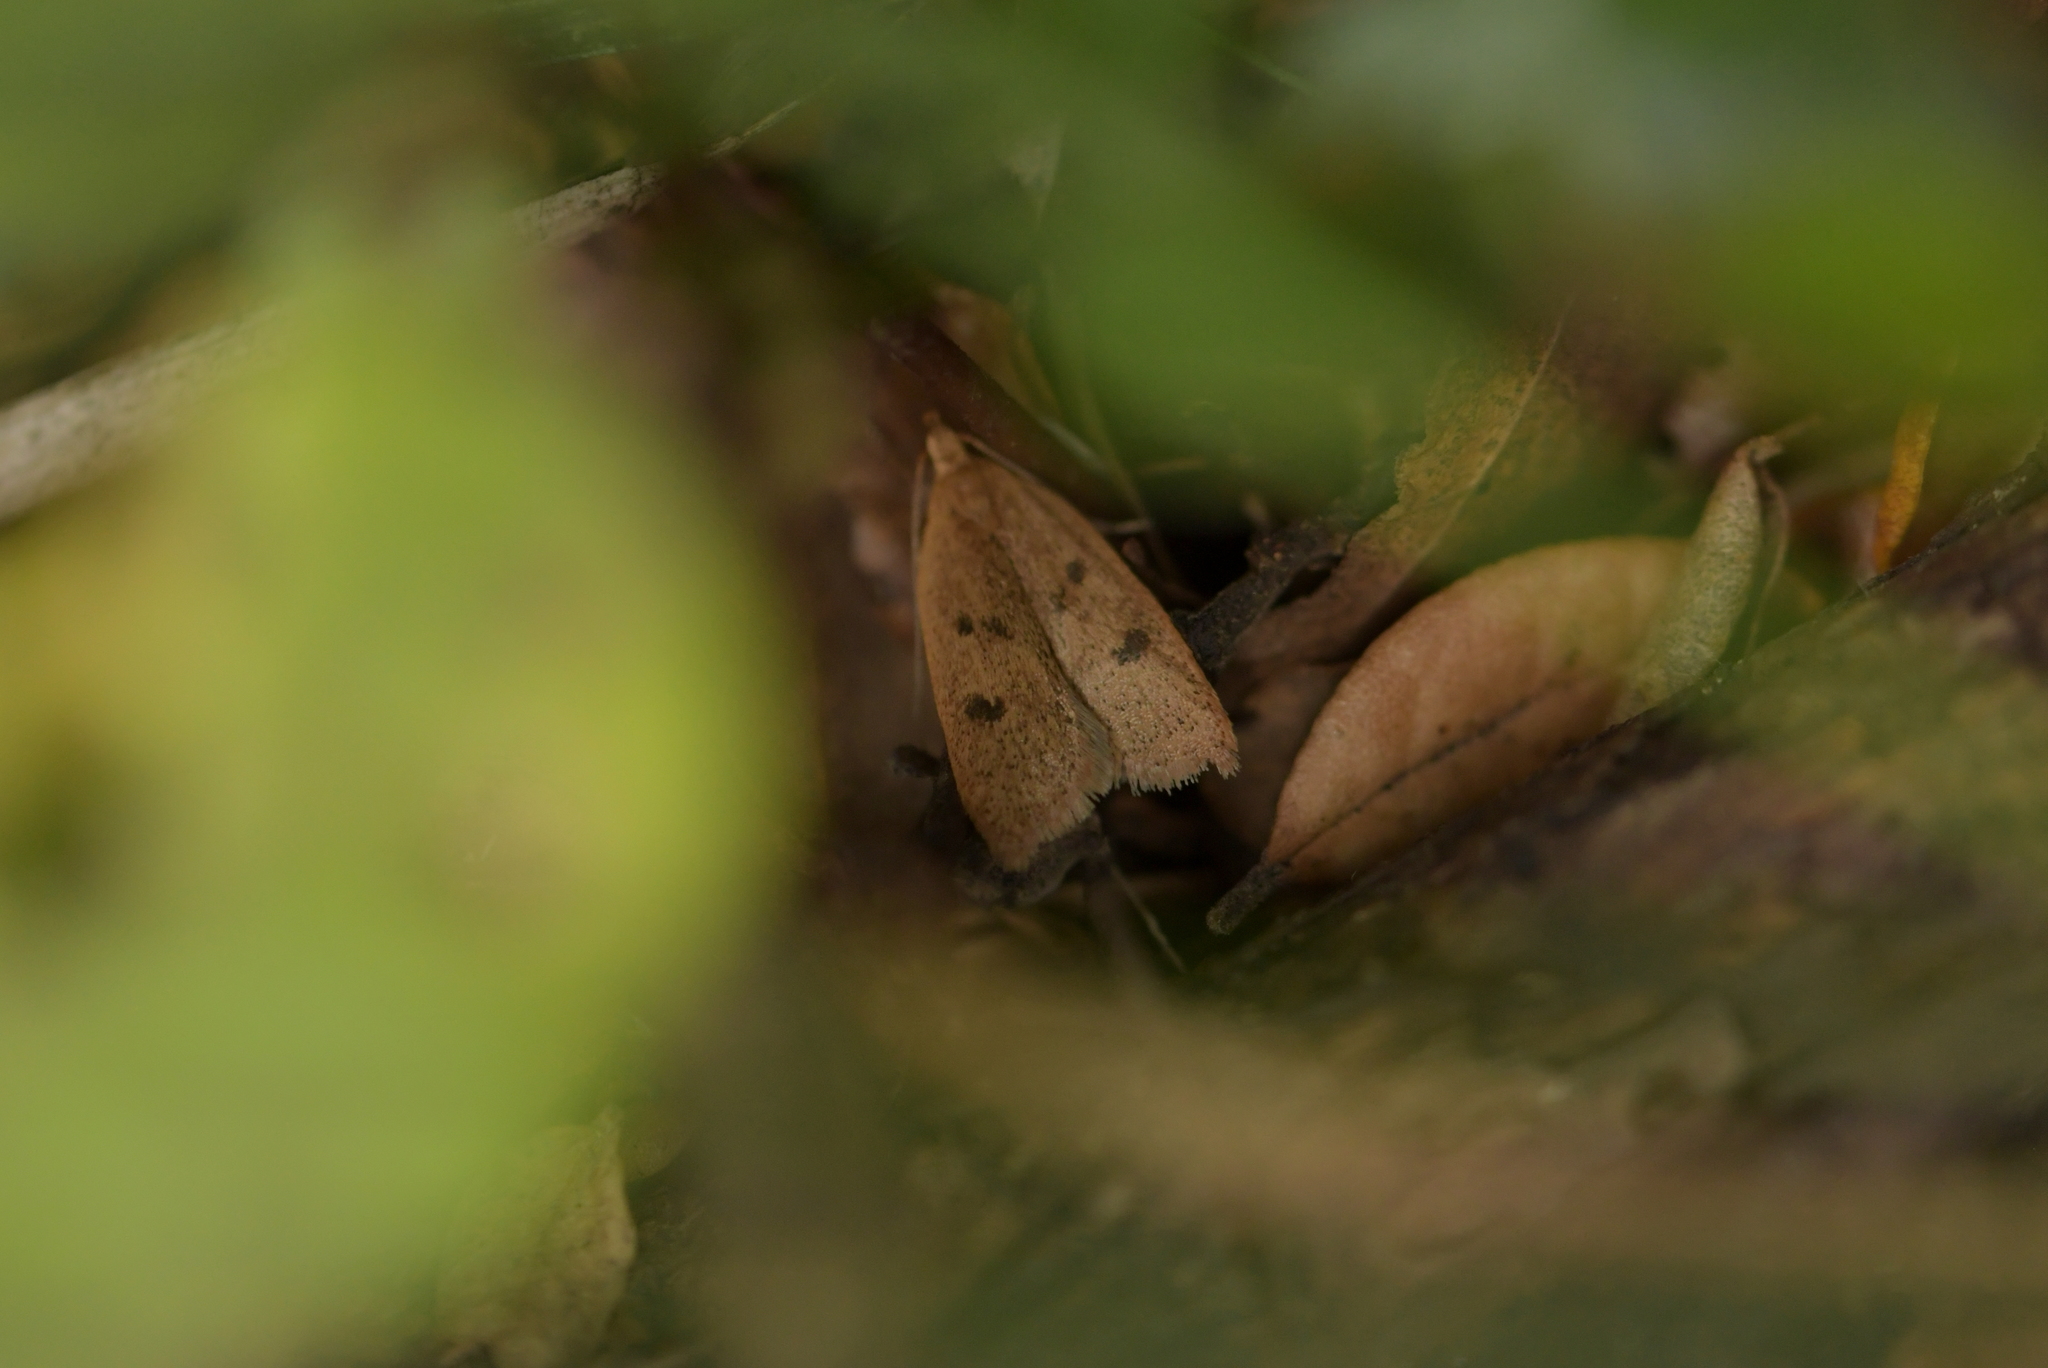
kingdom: Animalia
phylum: Arthropoda
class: Insecta
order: Lepidoptera
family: Oecophoridae
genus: Gymnobathra
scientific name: Gymnobathra sarcoxantha
